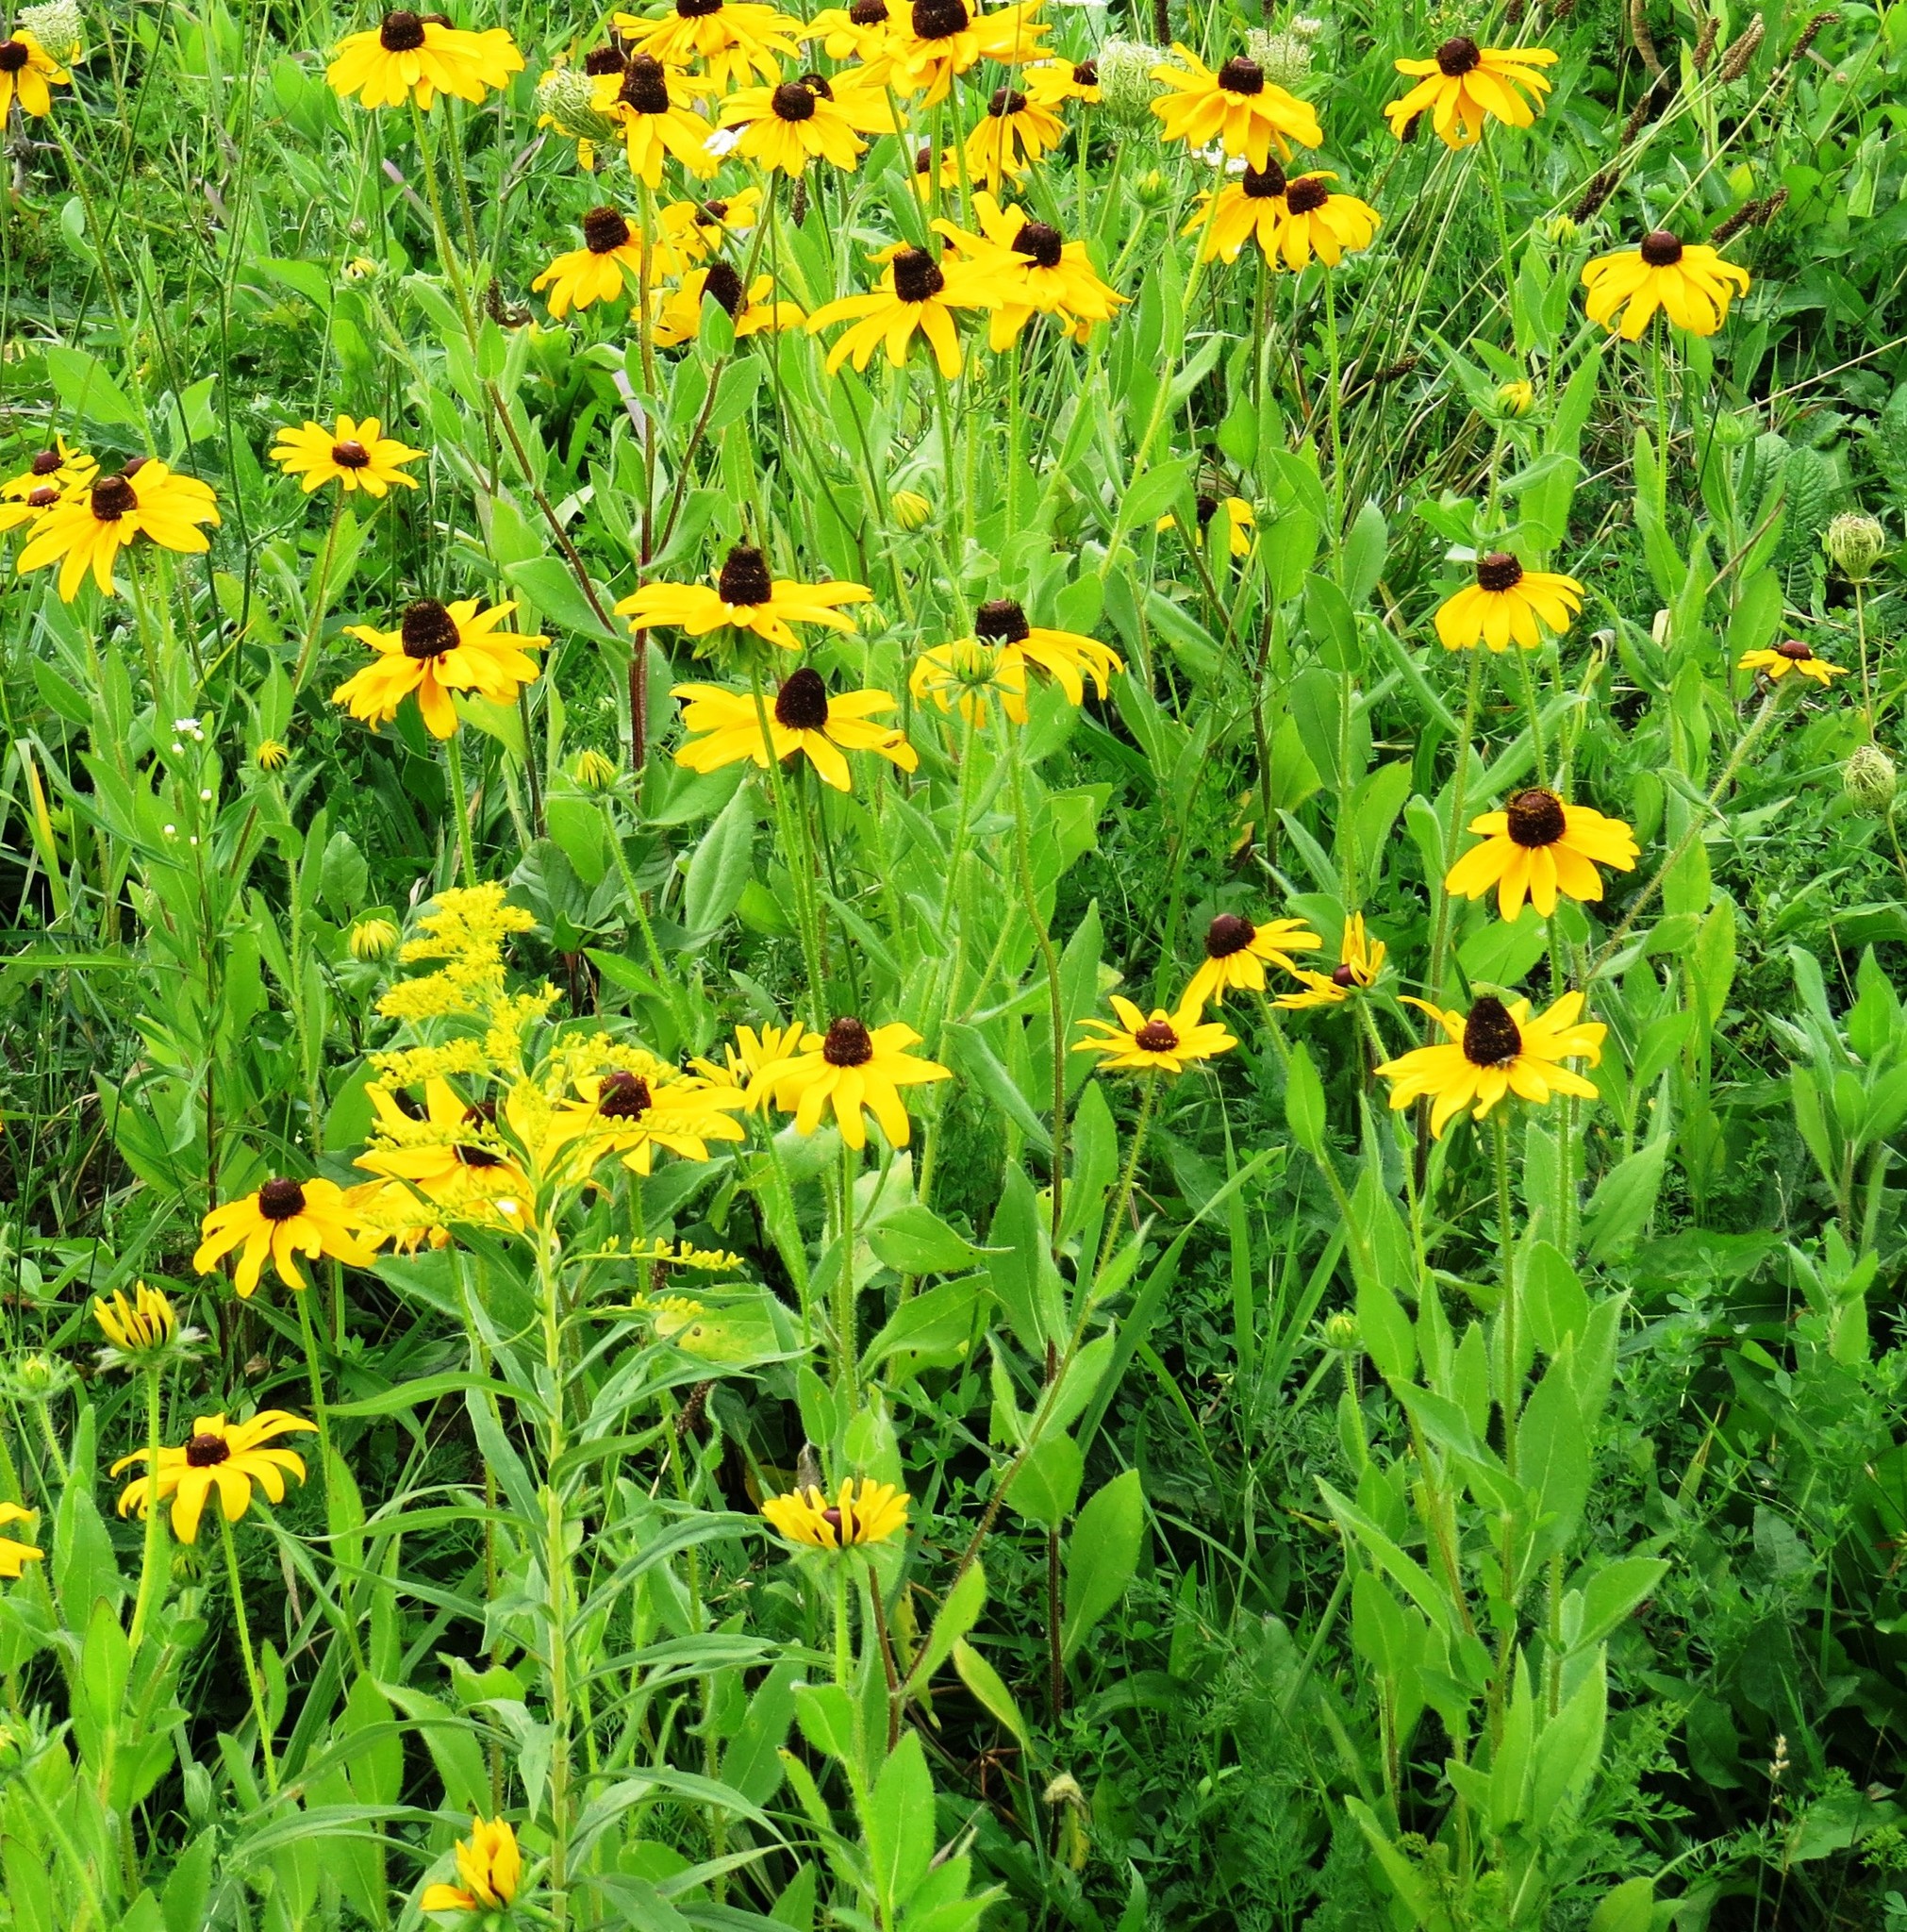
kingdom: Plantae
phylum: Tracheophyta
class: Magnoliopsida
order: Asterales
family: Asteraceae
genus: Rudbeckia
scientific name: Rudbeckia hirta
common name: Black-eyed-susan
